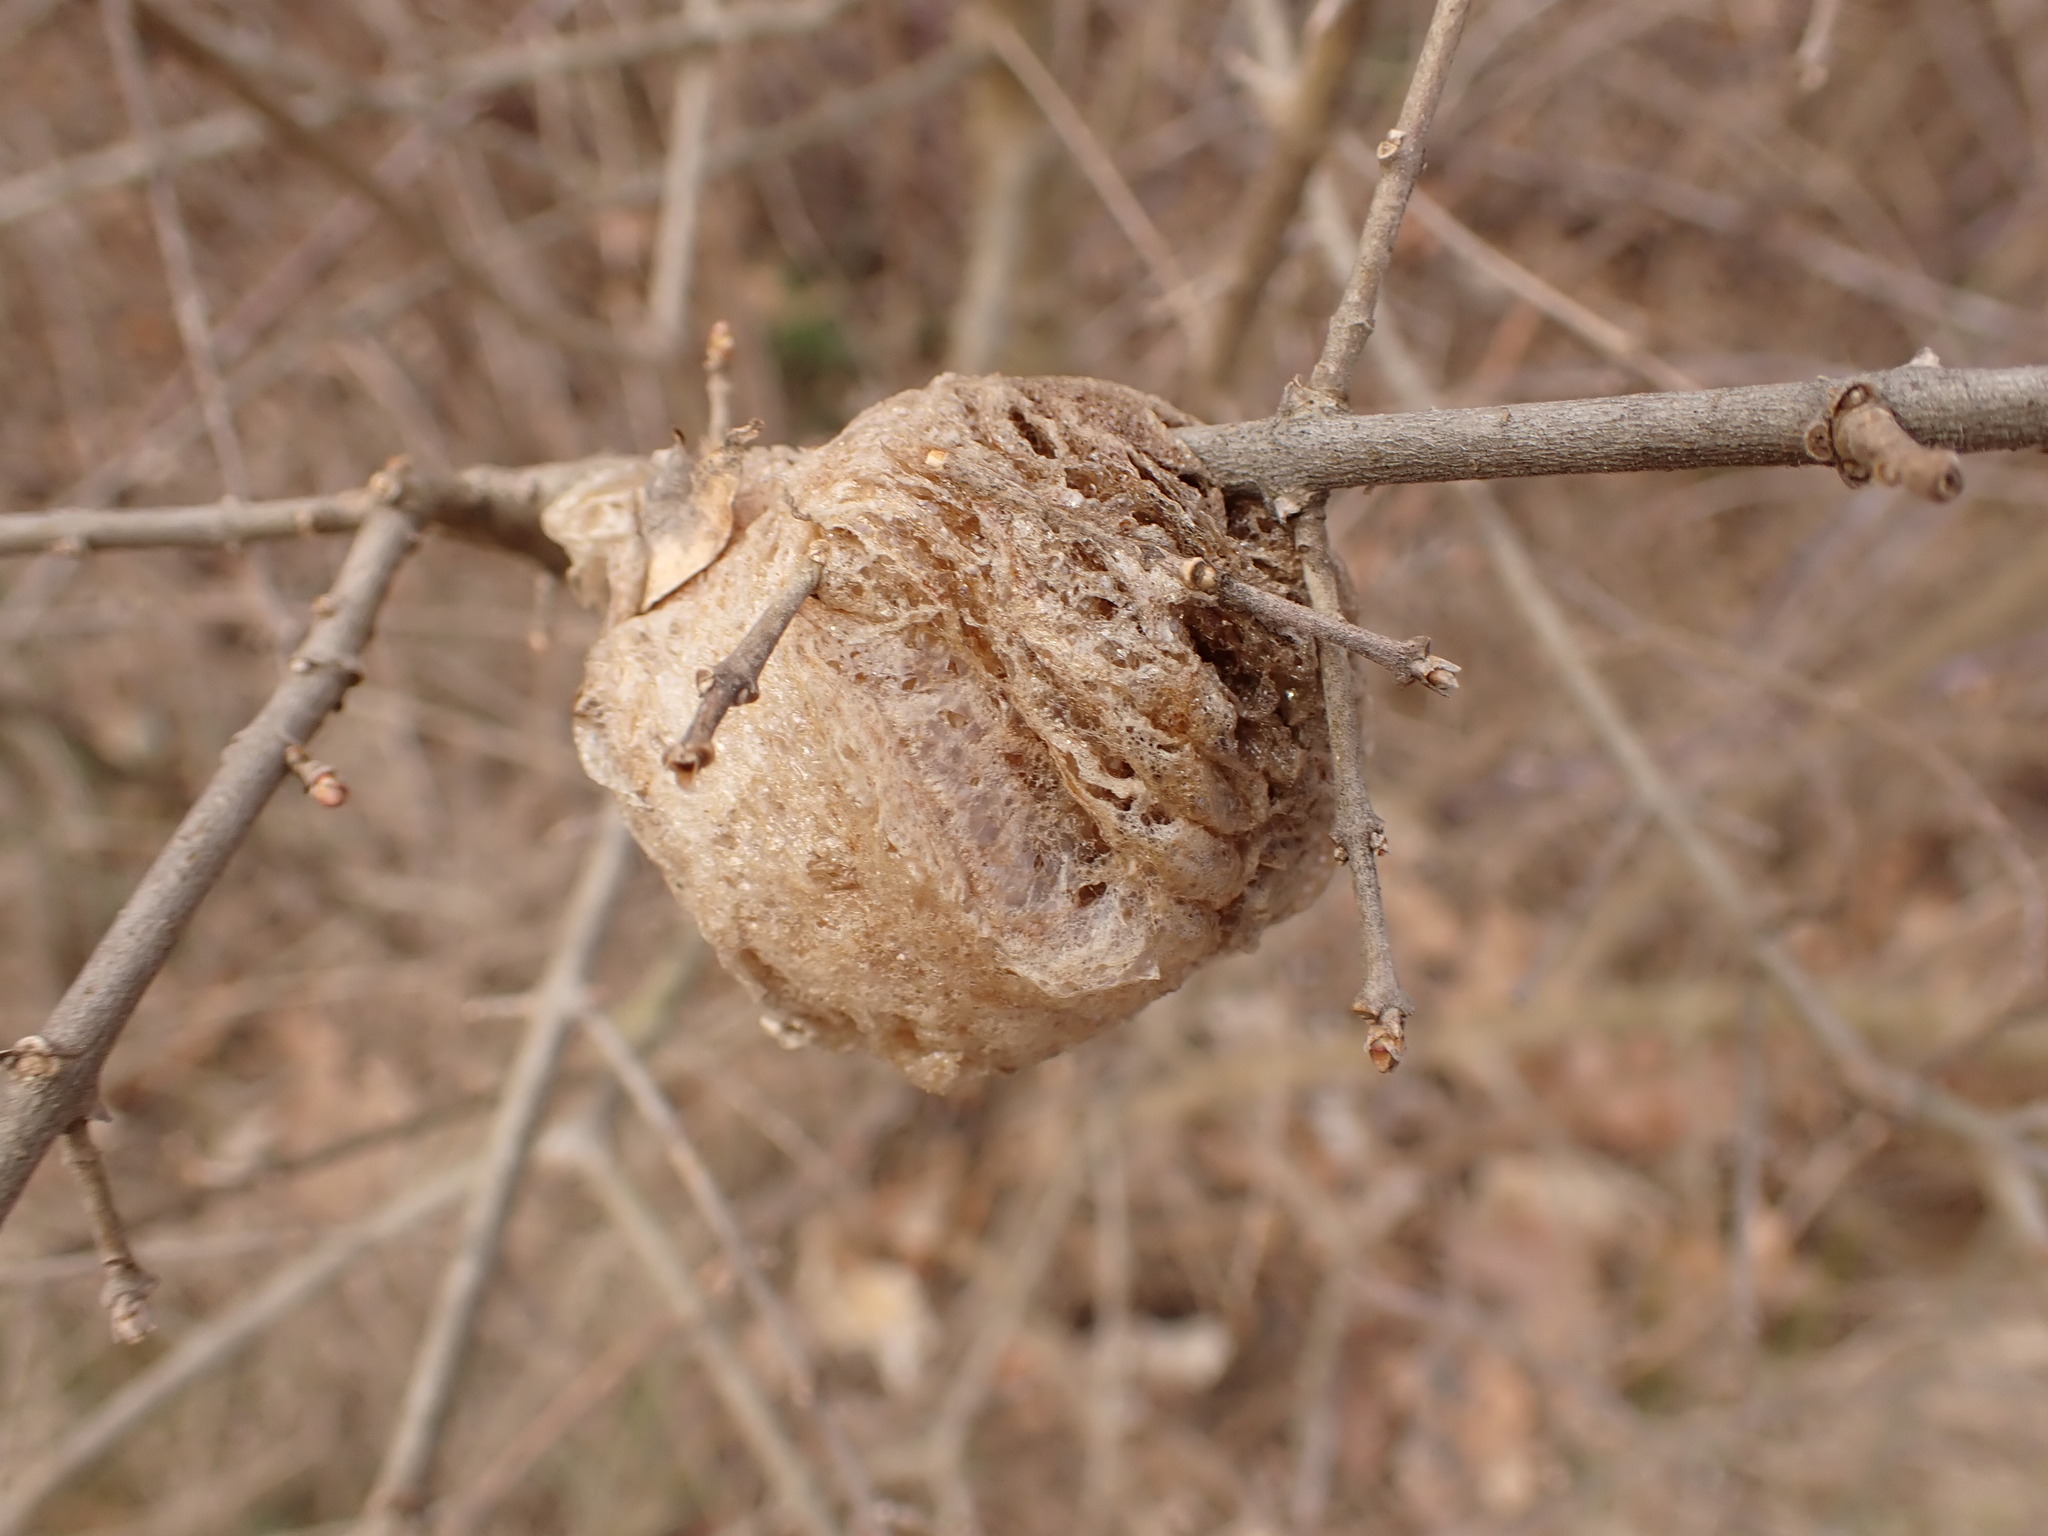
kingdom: Animalia
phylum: Arthropoda
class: Insecta
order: Mantodea
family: Mantidae
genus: Tenodera
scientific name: Tenodera sinensis
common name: Chinese mantis
